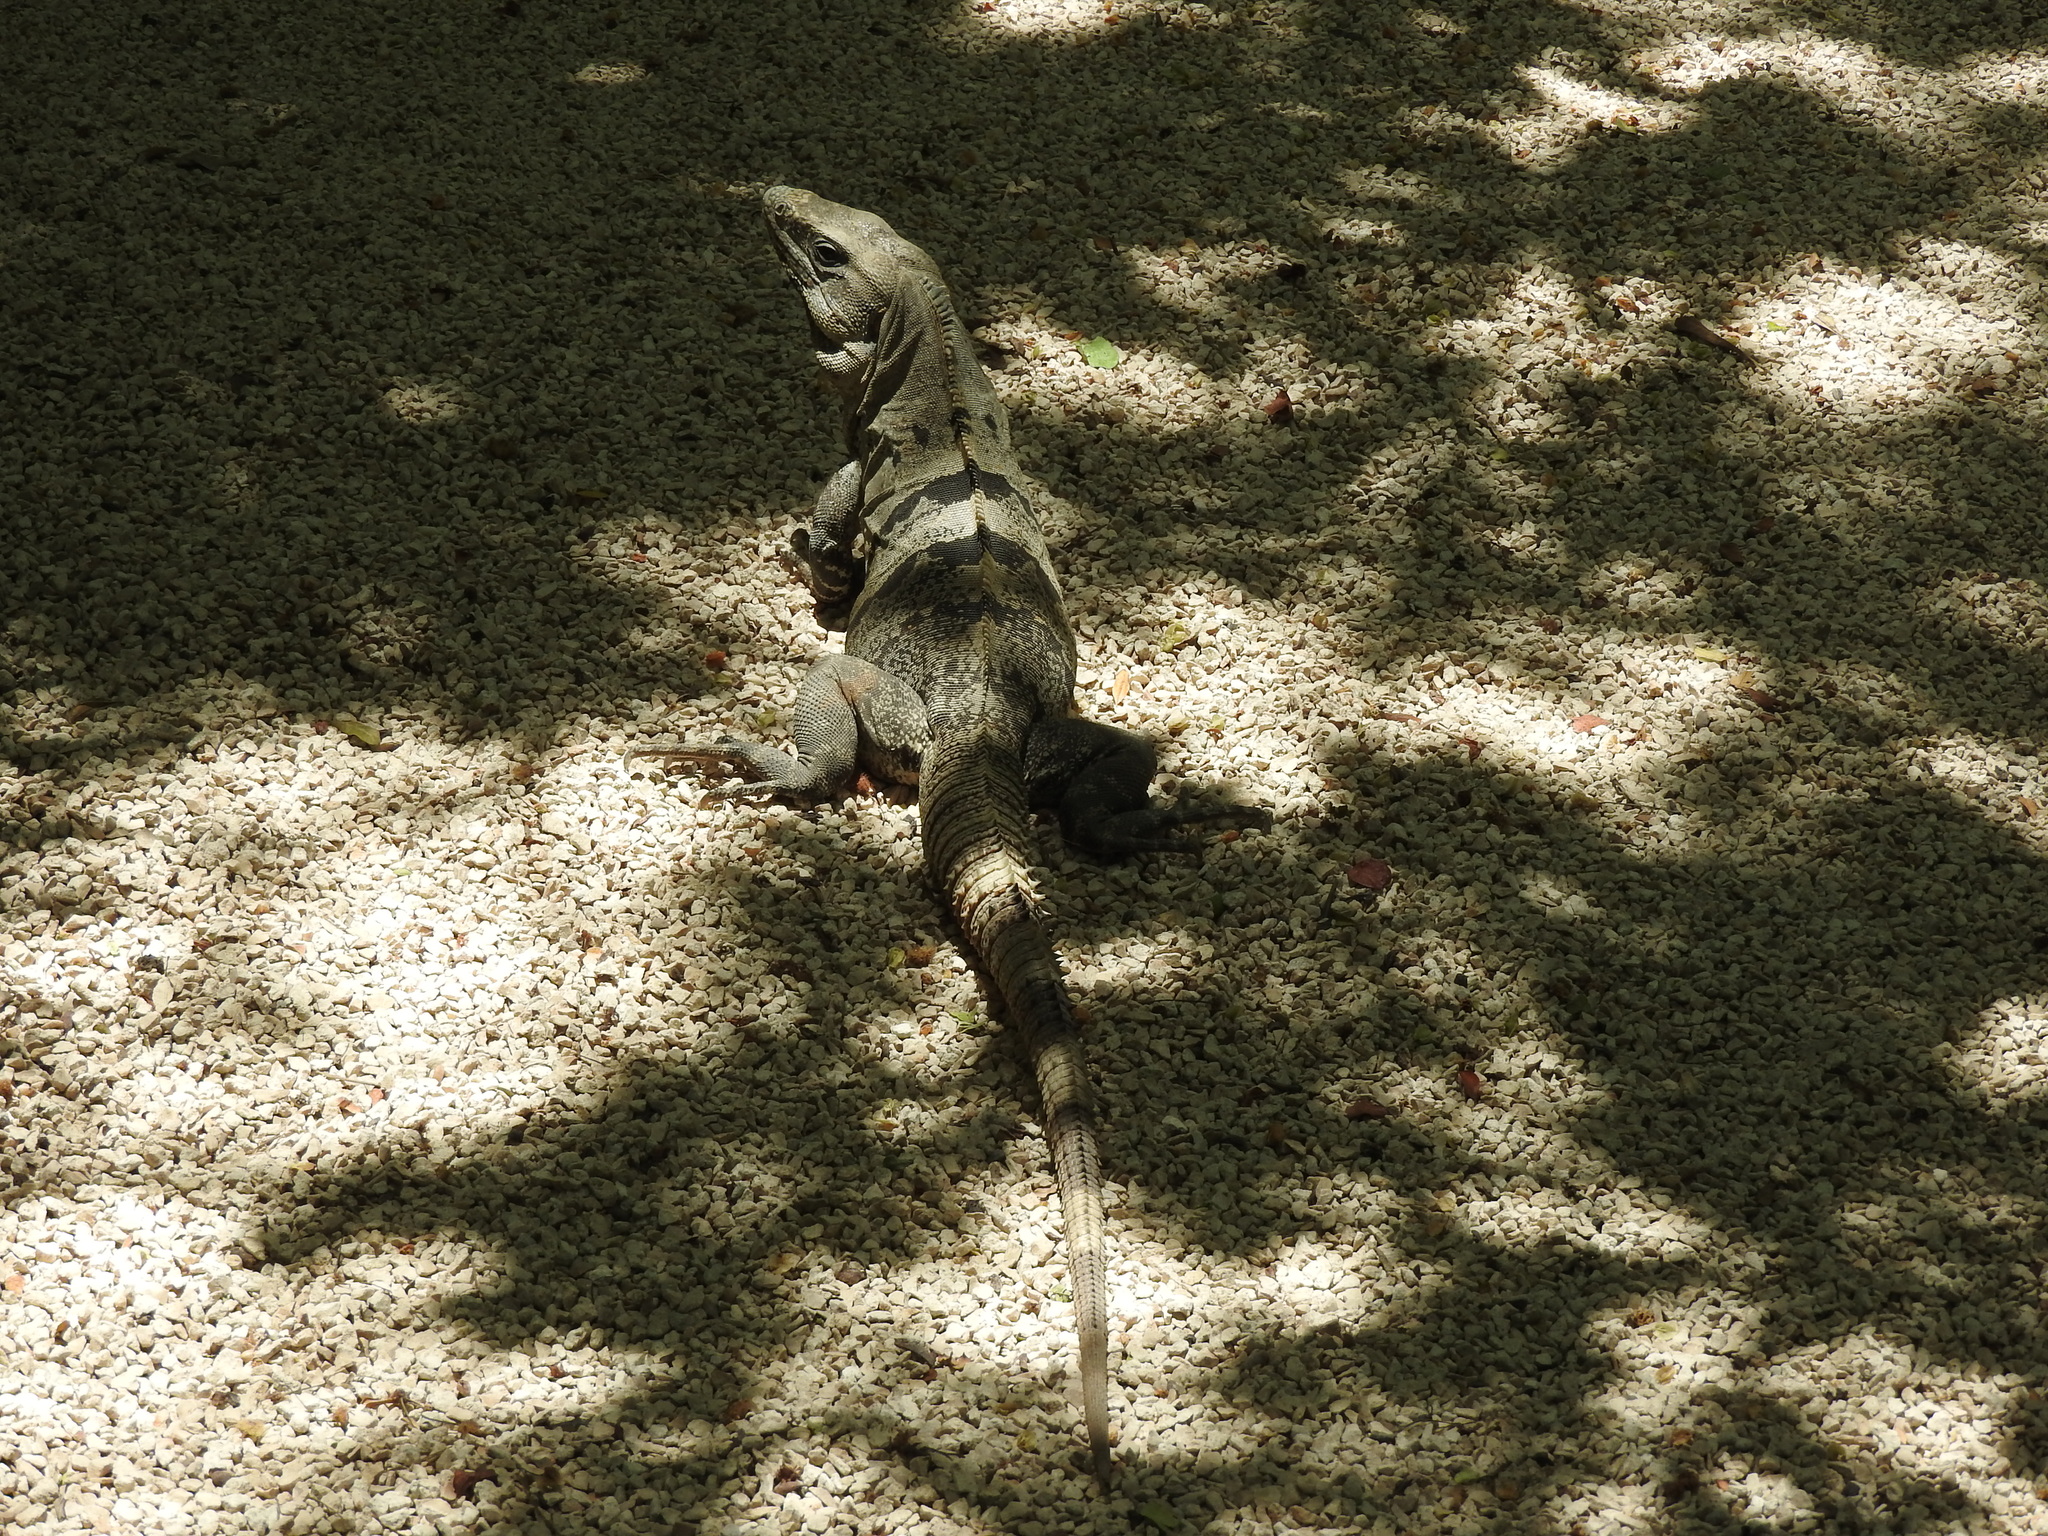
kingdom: Animalia
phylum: Chordata
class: Squamata
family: Iguanidae
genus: Ctenosaura
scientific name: Ctenosaura similis
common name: Black spiny-tailed iguana
